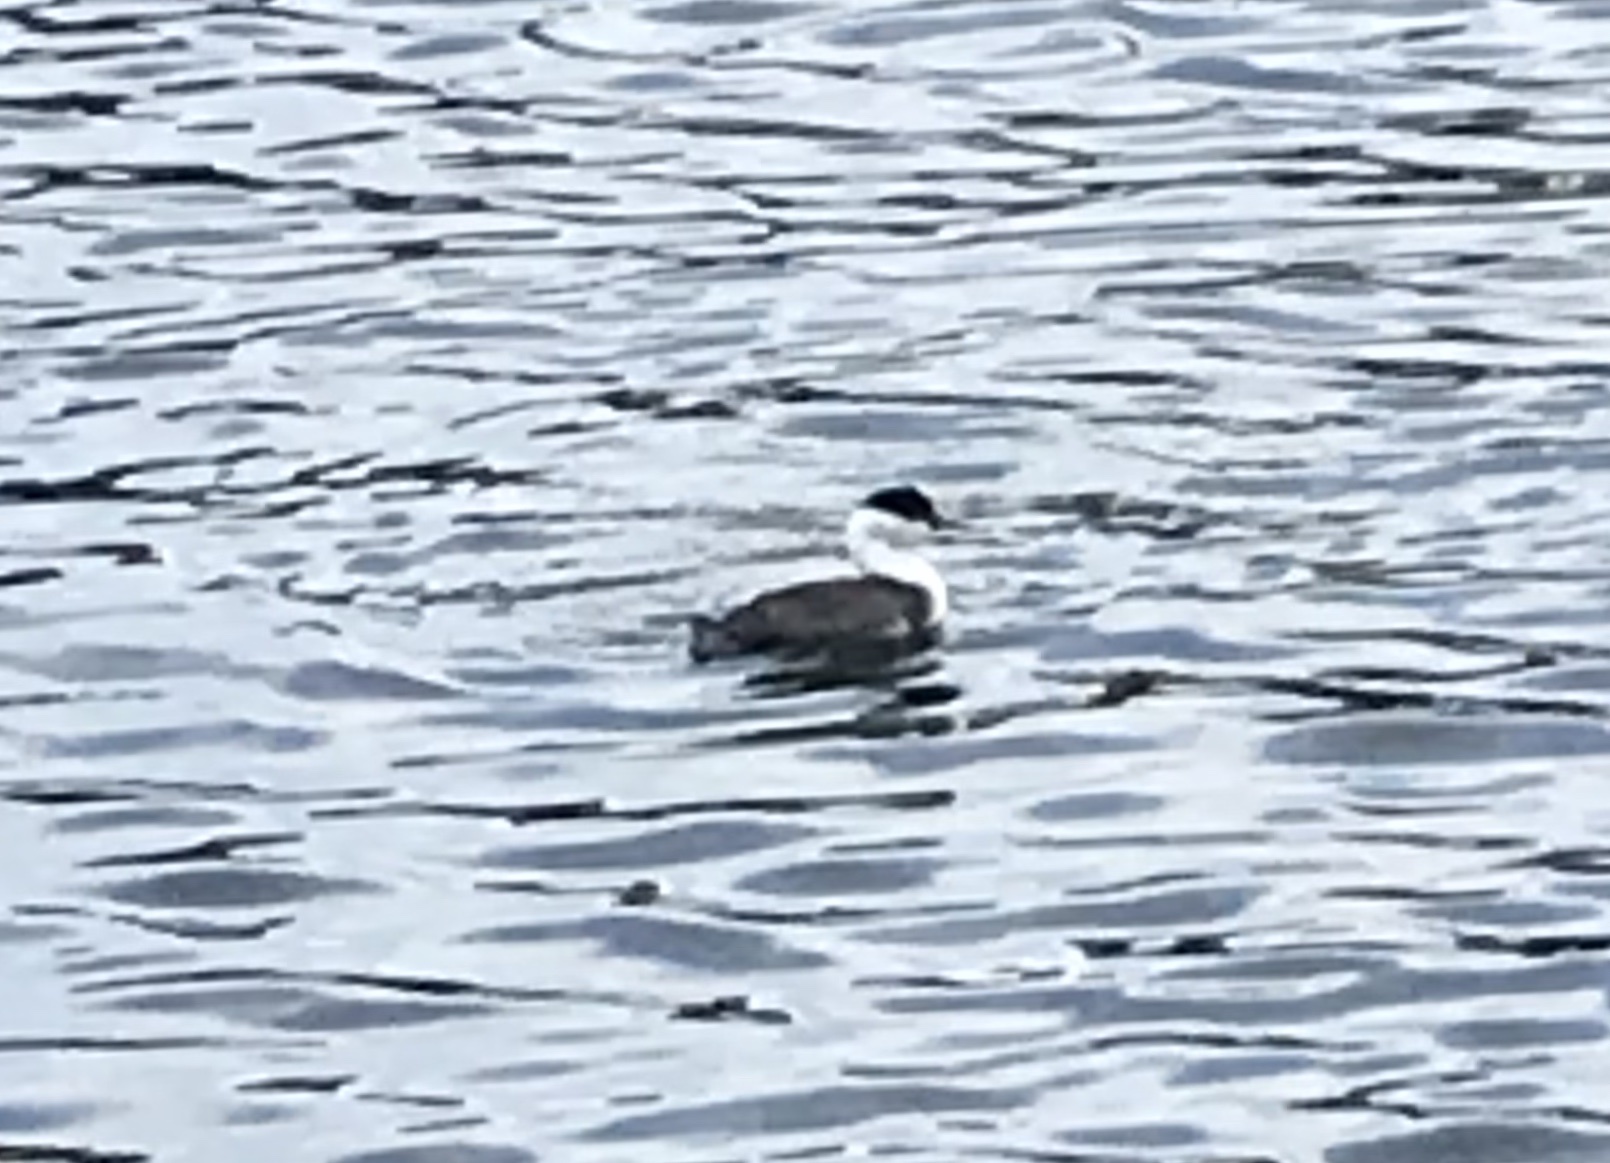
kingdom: Animalia
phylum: Chordata
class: Aves
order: Podicipediformes
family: Podicipedidae
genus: Aechmophorus
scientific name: Aechmophorus occidentalis
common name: Western grebe
